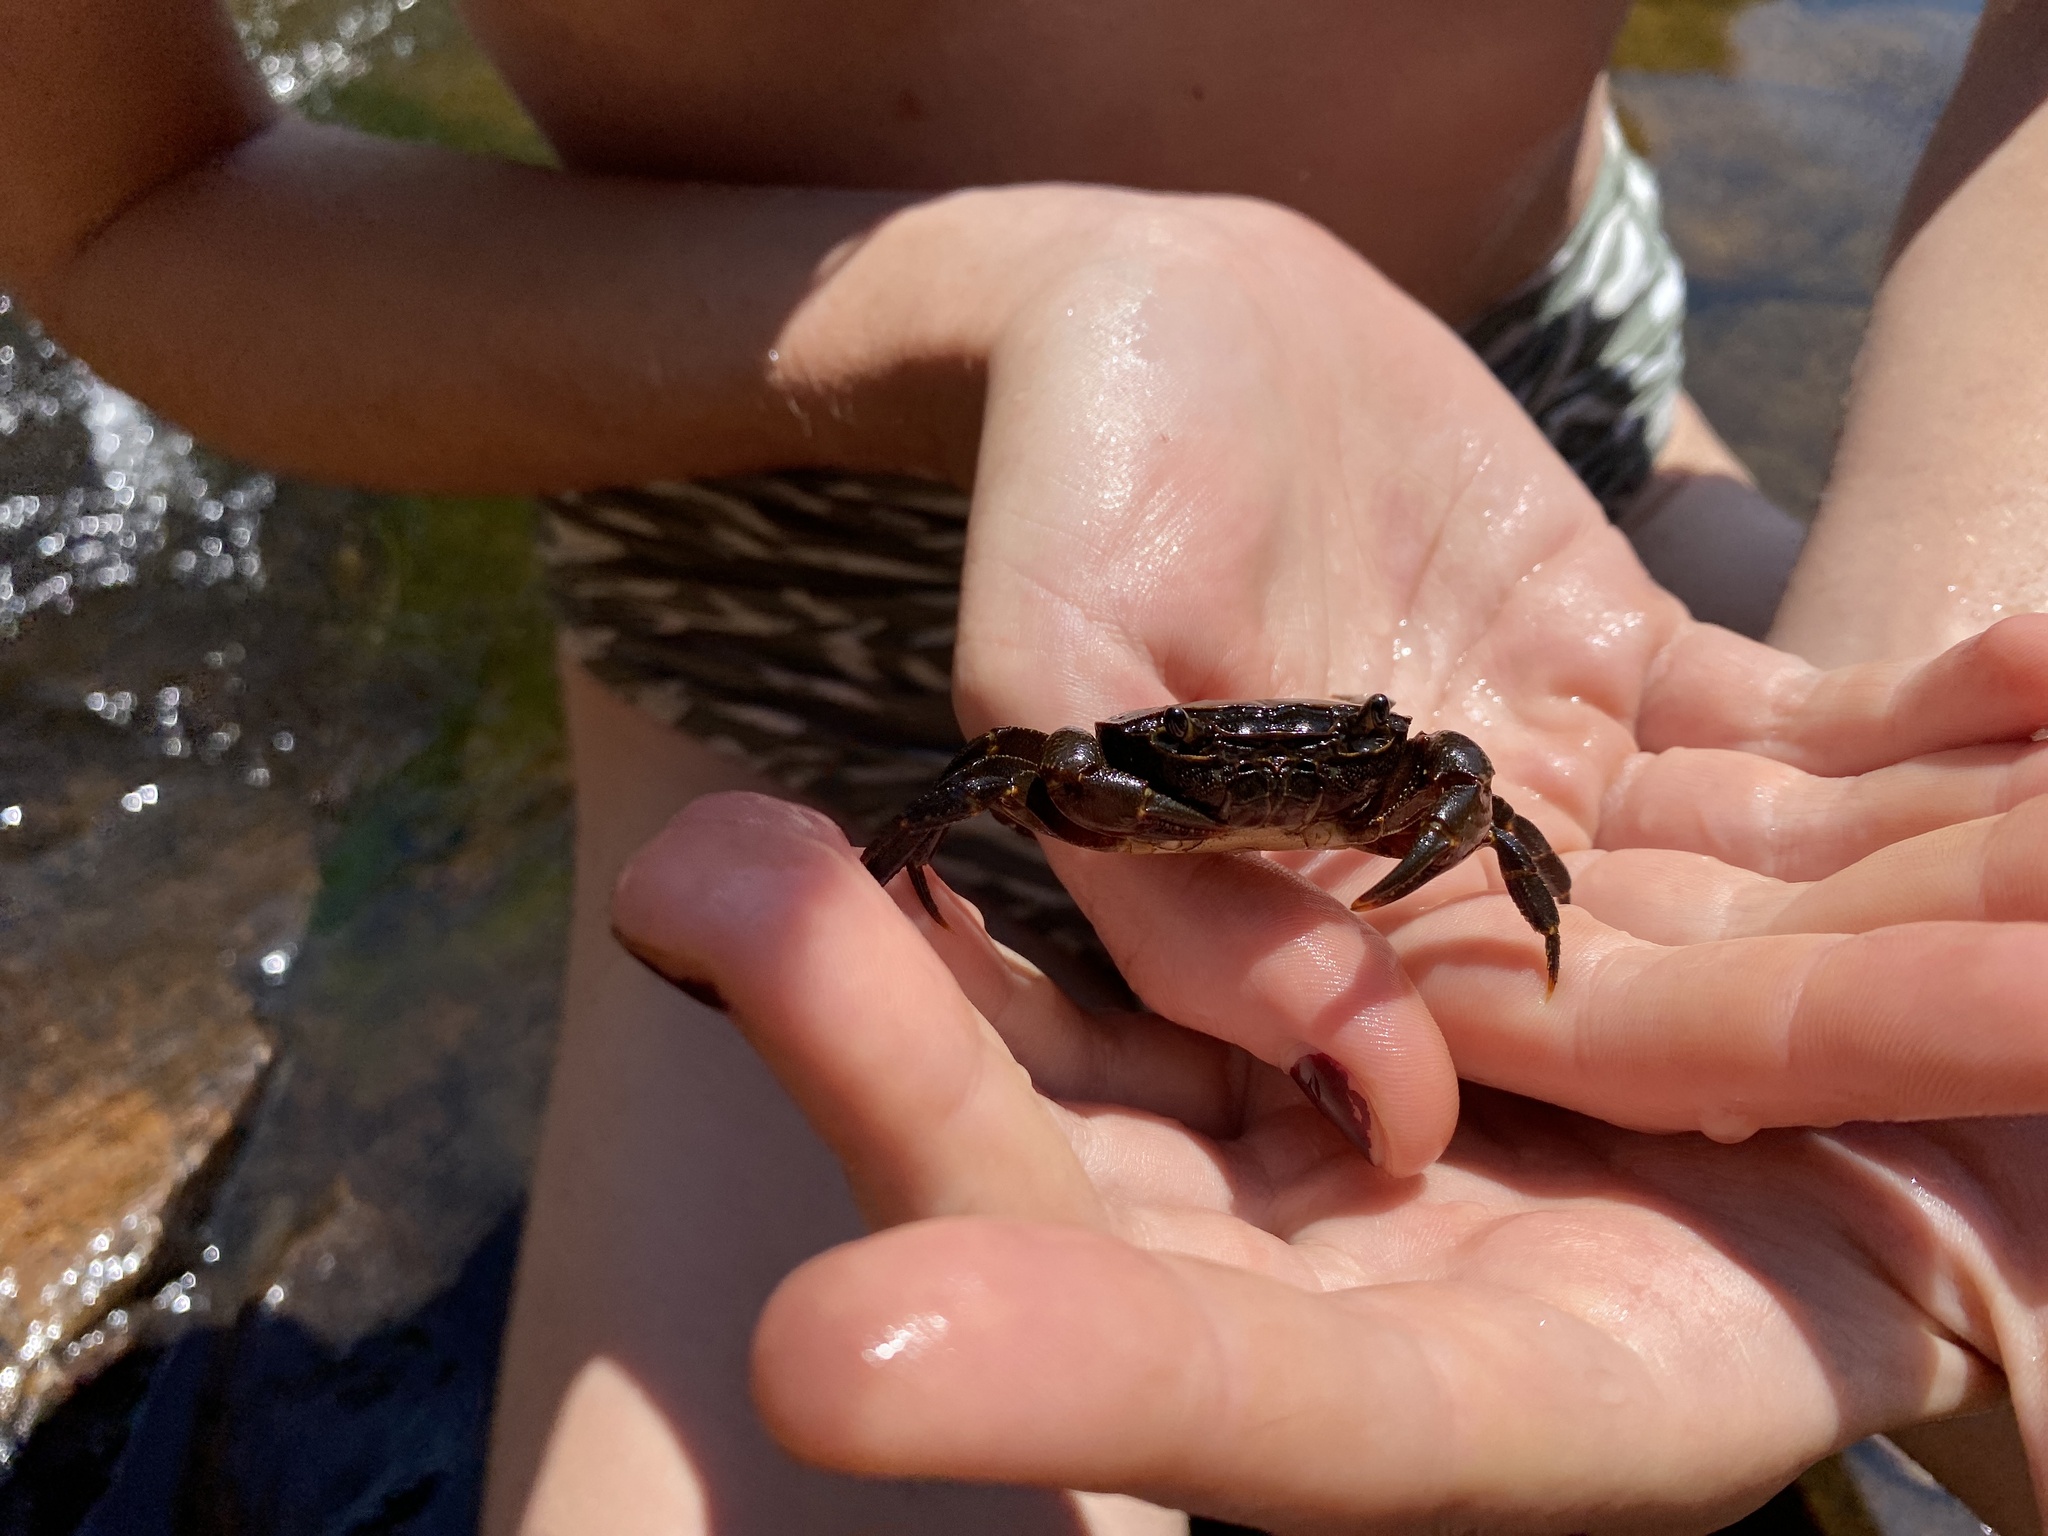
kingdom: Animalia
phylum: Arthropoda
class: Malacostraca
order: Decapoda
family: Potamonautidae
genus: Potamonautes
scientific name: Potamonautes sidneyi
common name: Natal river crab
